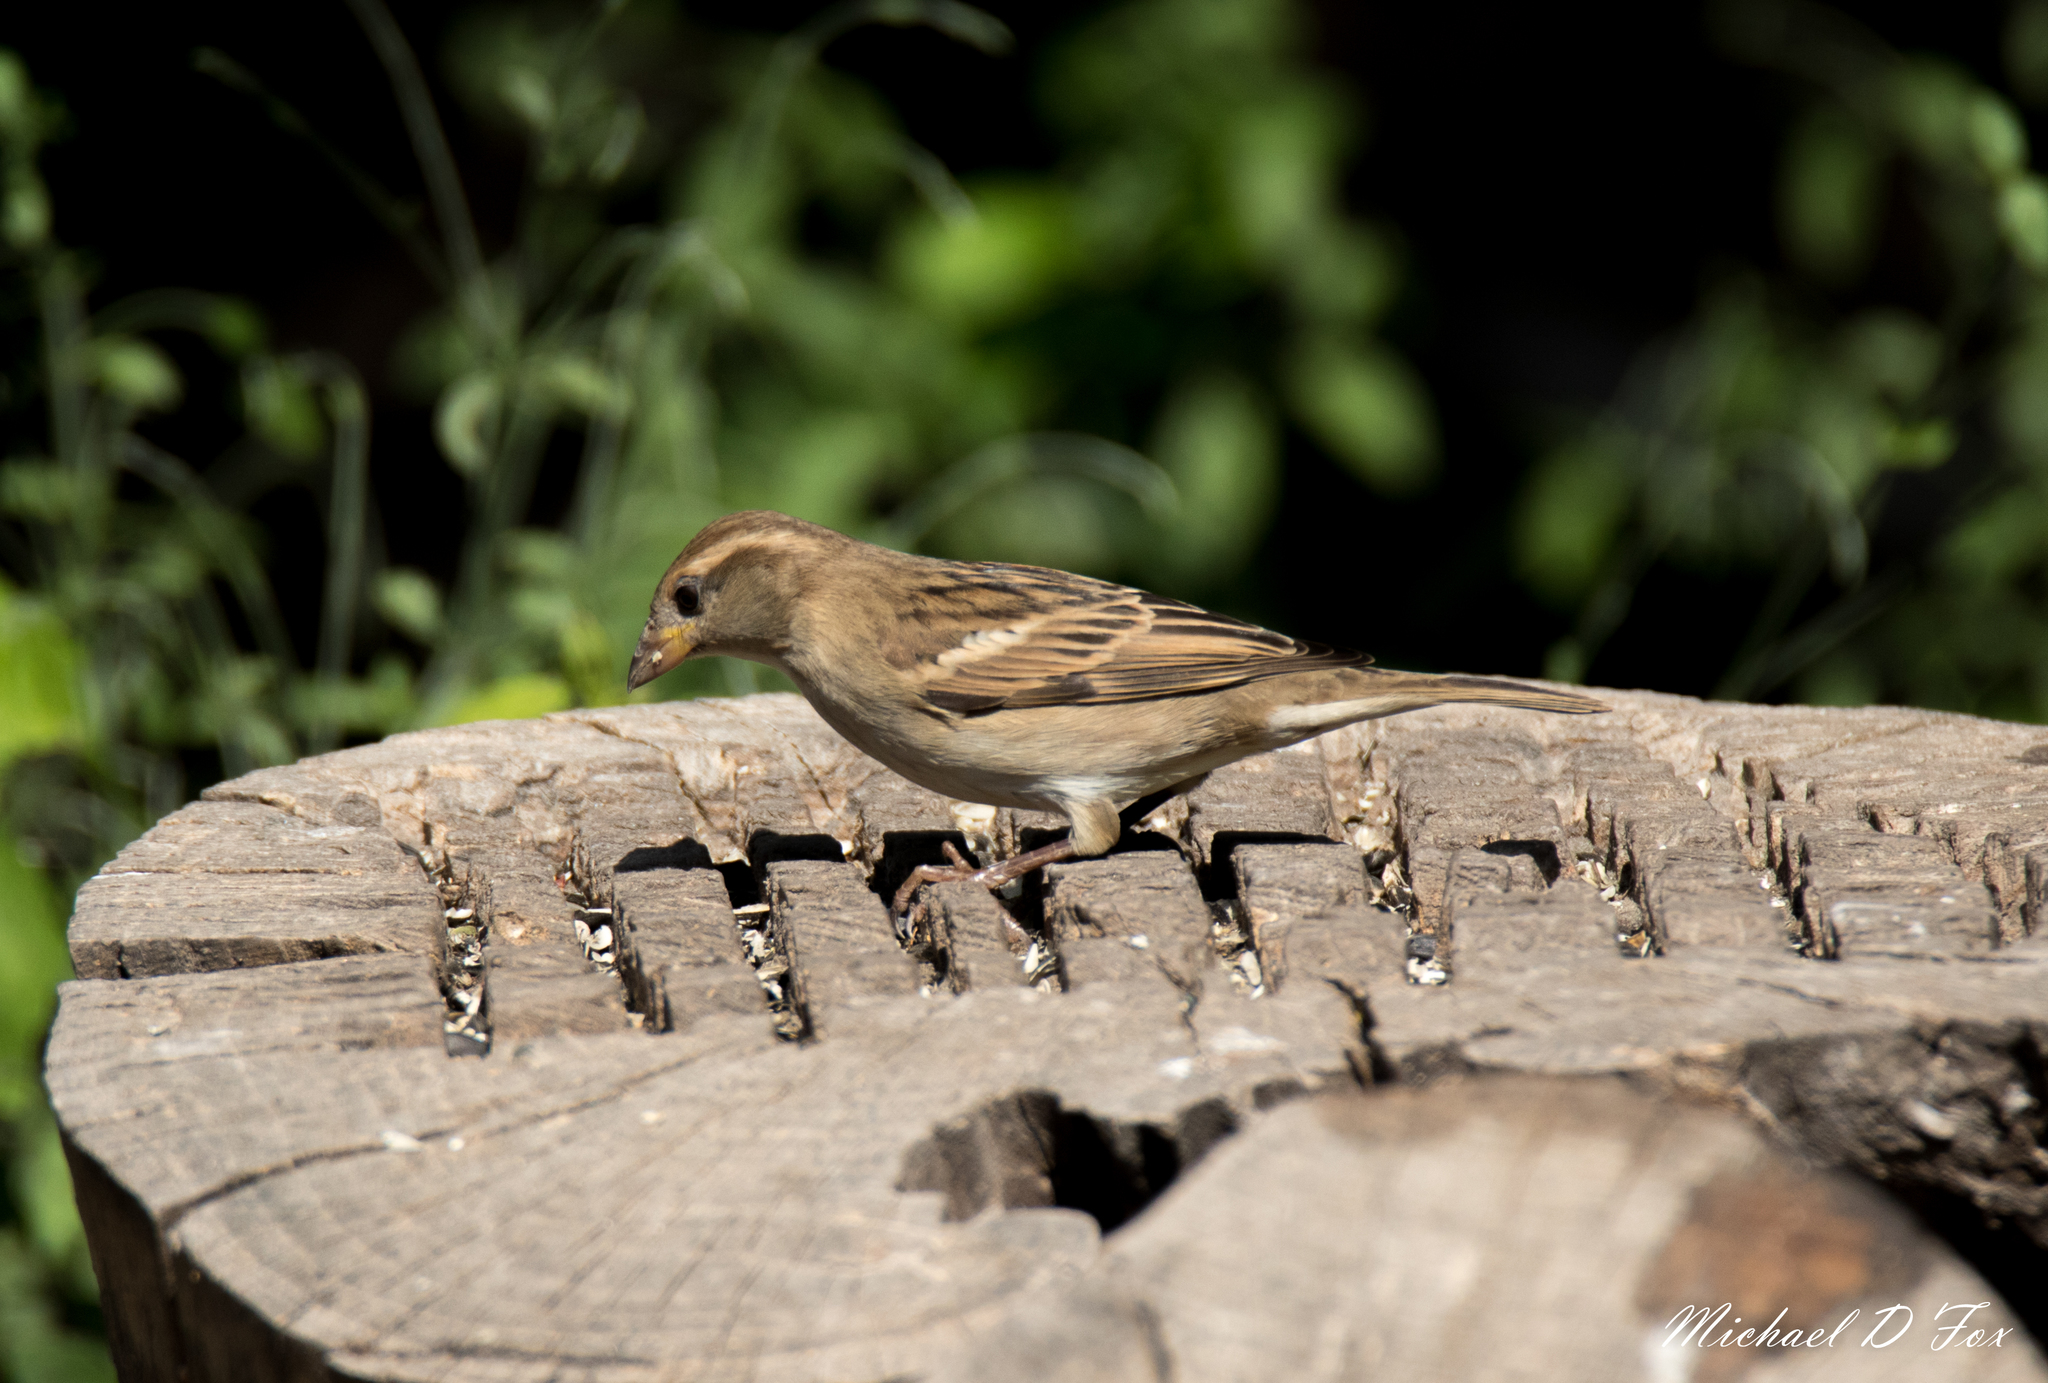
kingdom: Animalia
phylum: Chordata
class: Aves
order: Passeriformes
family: Passeridae
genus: Passer
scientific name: Passer domesticus
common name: House sparrow
